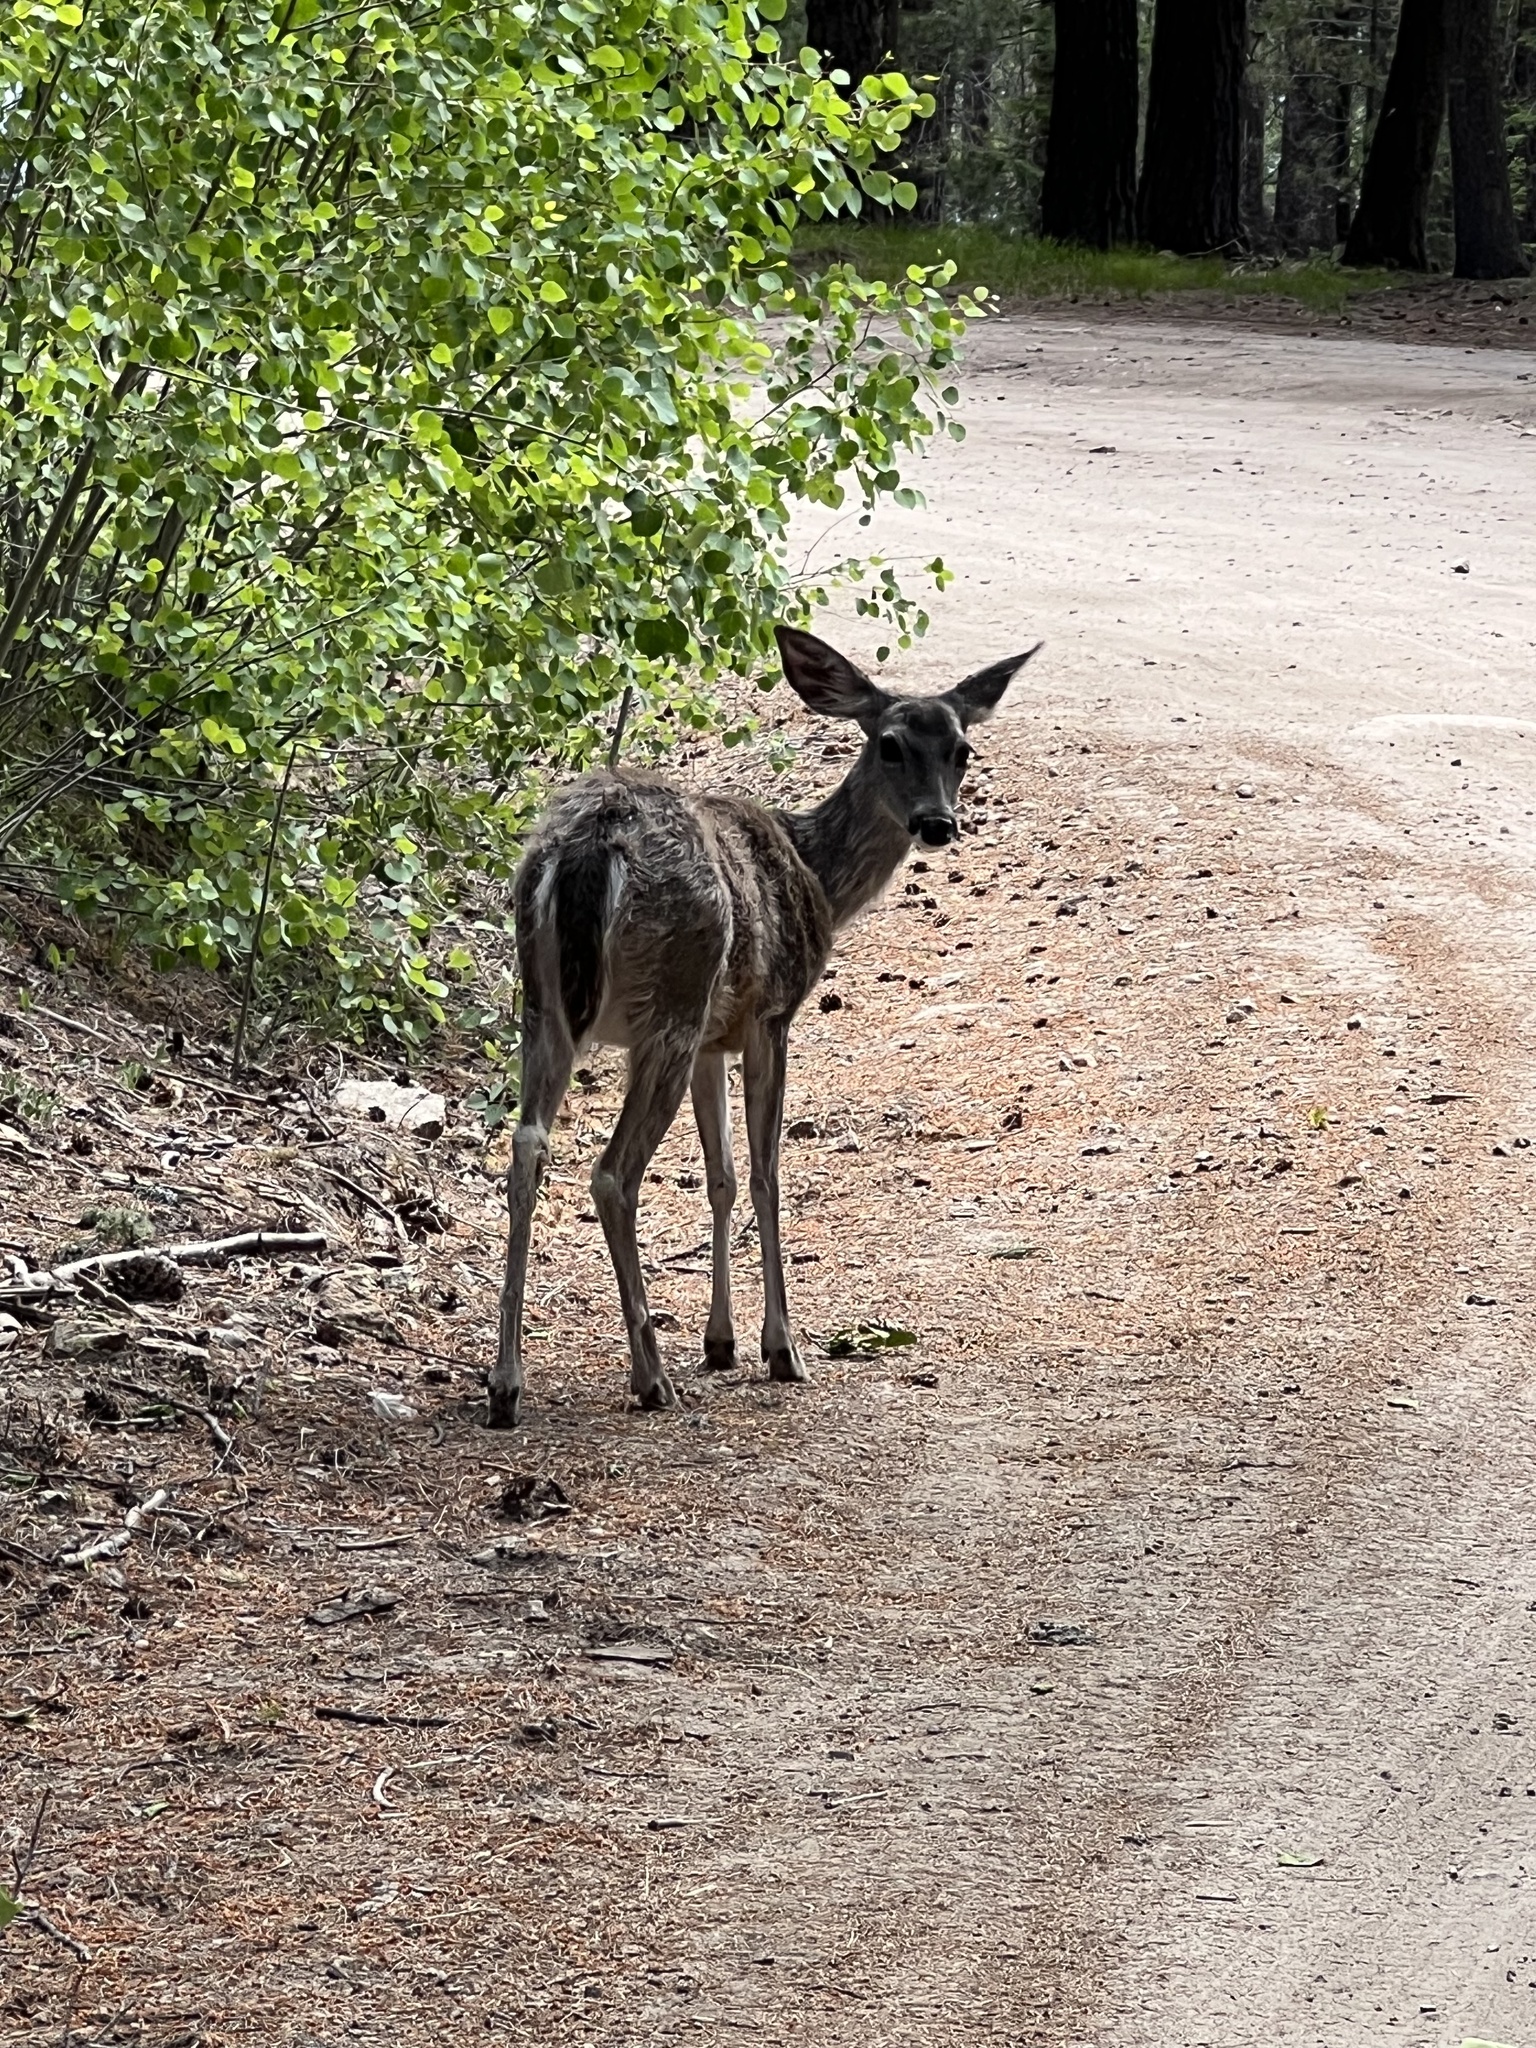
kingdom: Animalia
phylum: Chordata
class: Mammalia
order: Artiodactyla
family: Cervidae
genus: Odocoileus
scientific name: Odocoileus virginianus
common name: White-tailed deer
